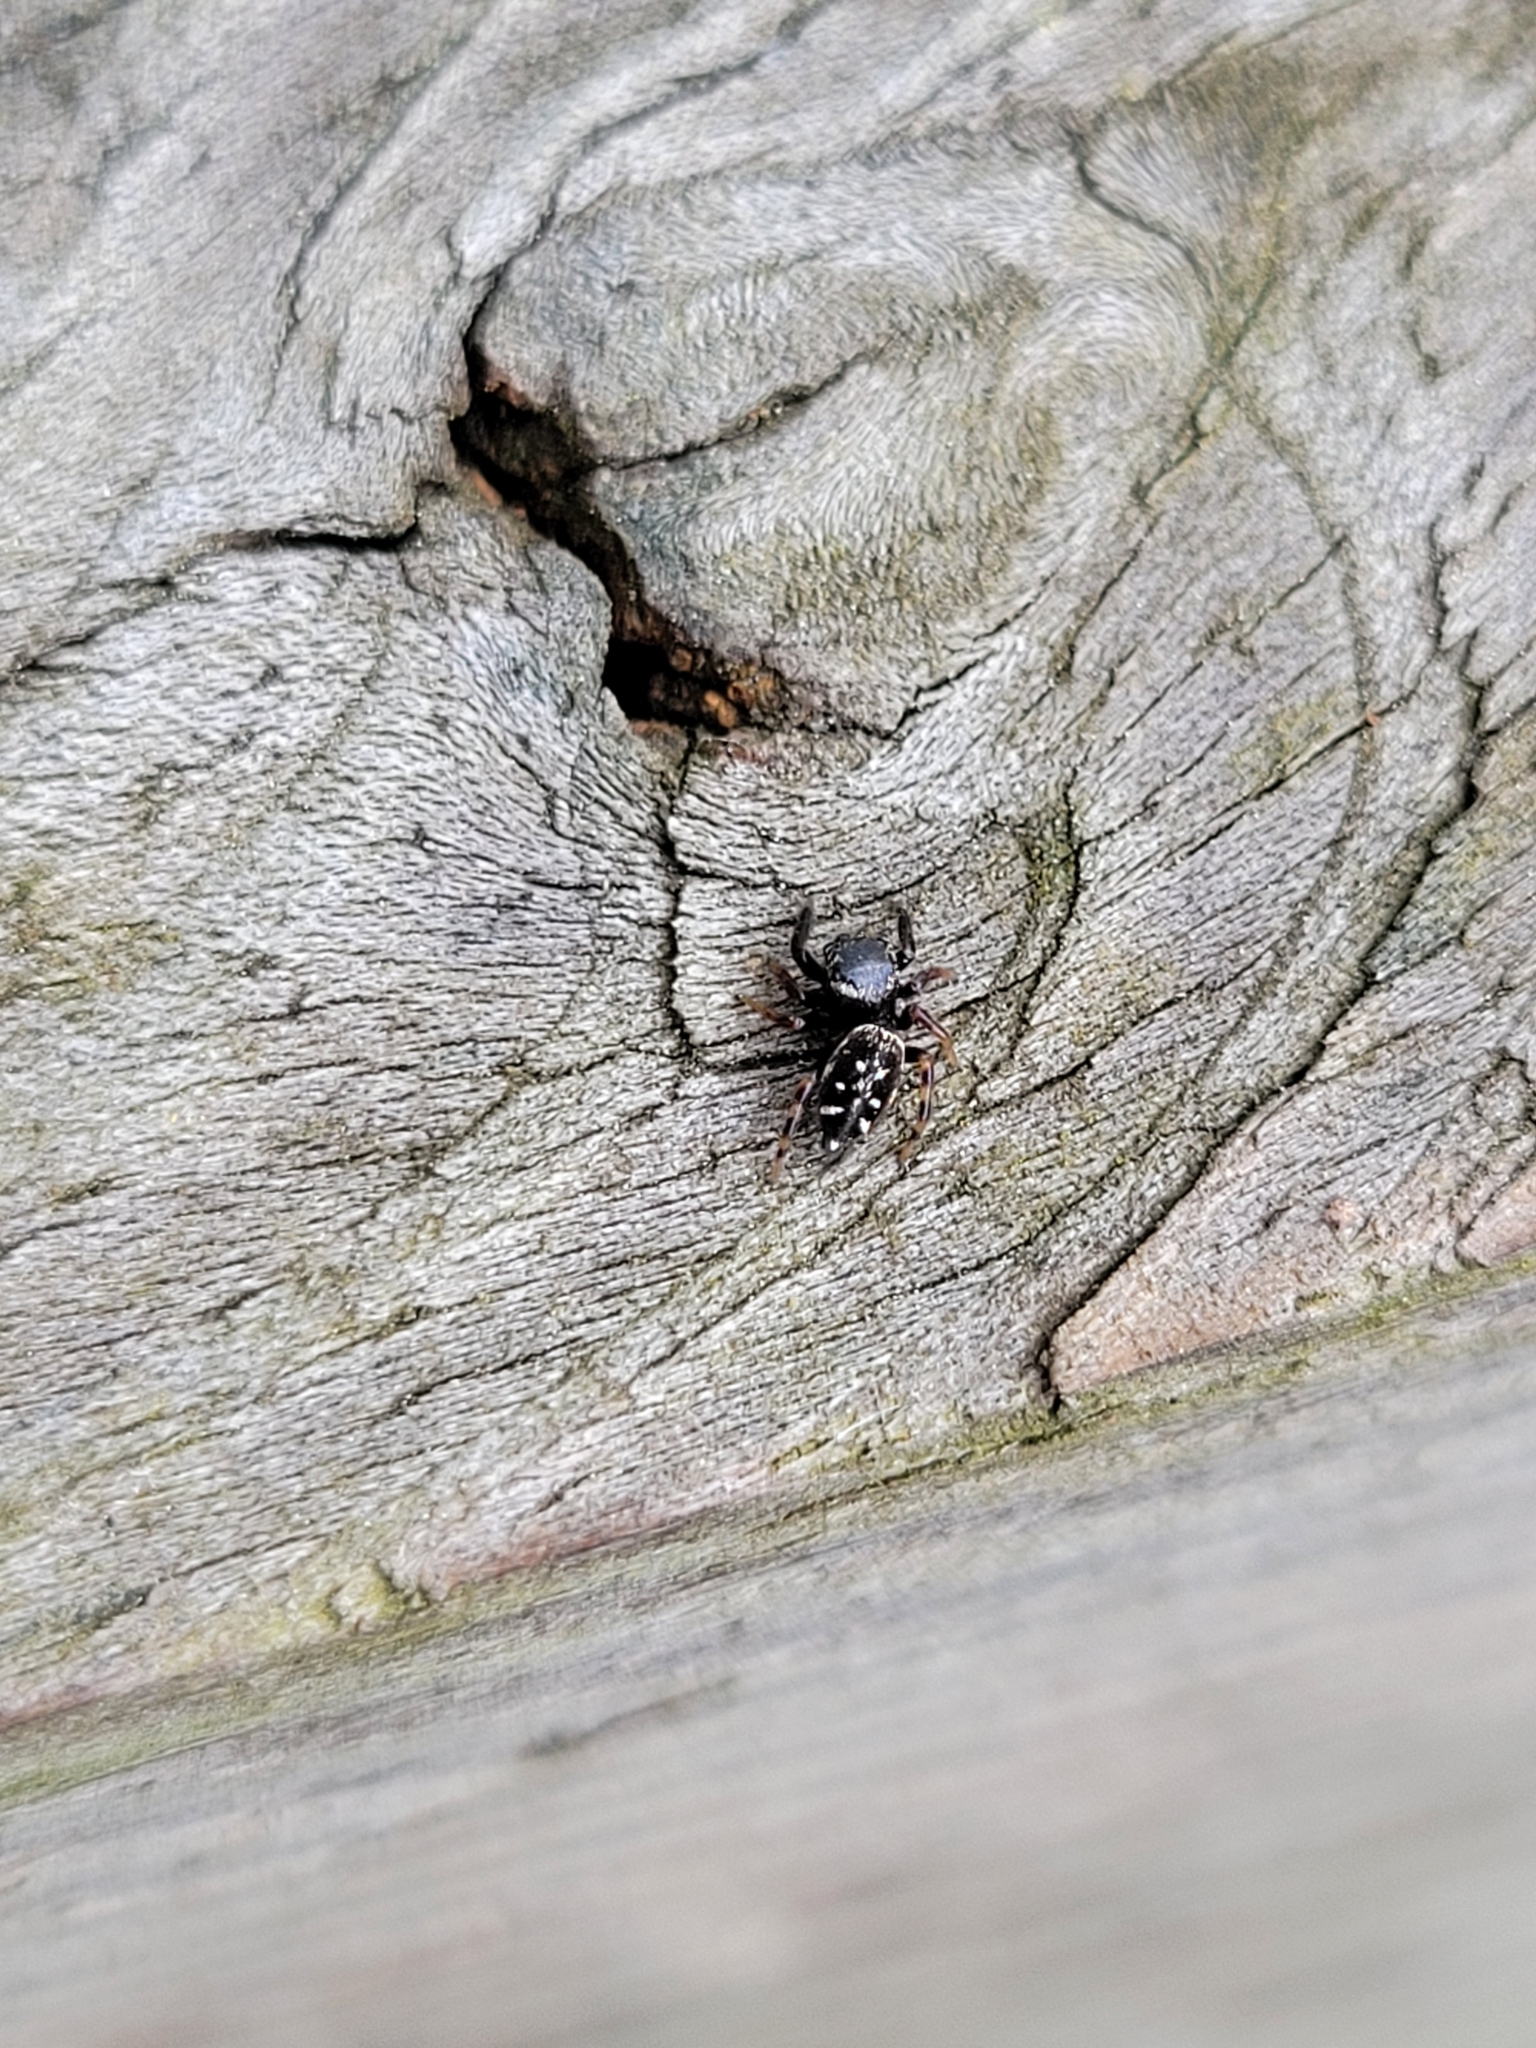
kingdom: Animalia
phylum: Arthropoda
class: Arachnida
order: Araneae
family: Salticidae
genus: Paraphidippus
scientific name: Paraphidippus aurantius
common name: Jumping spiders
